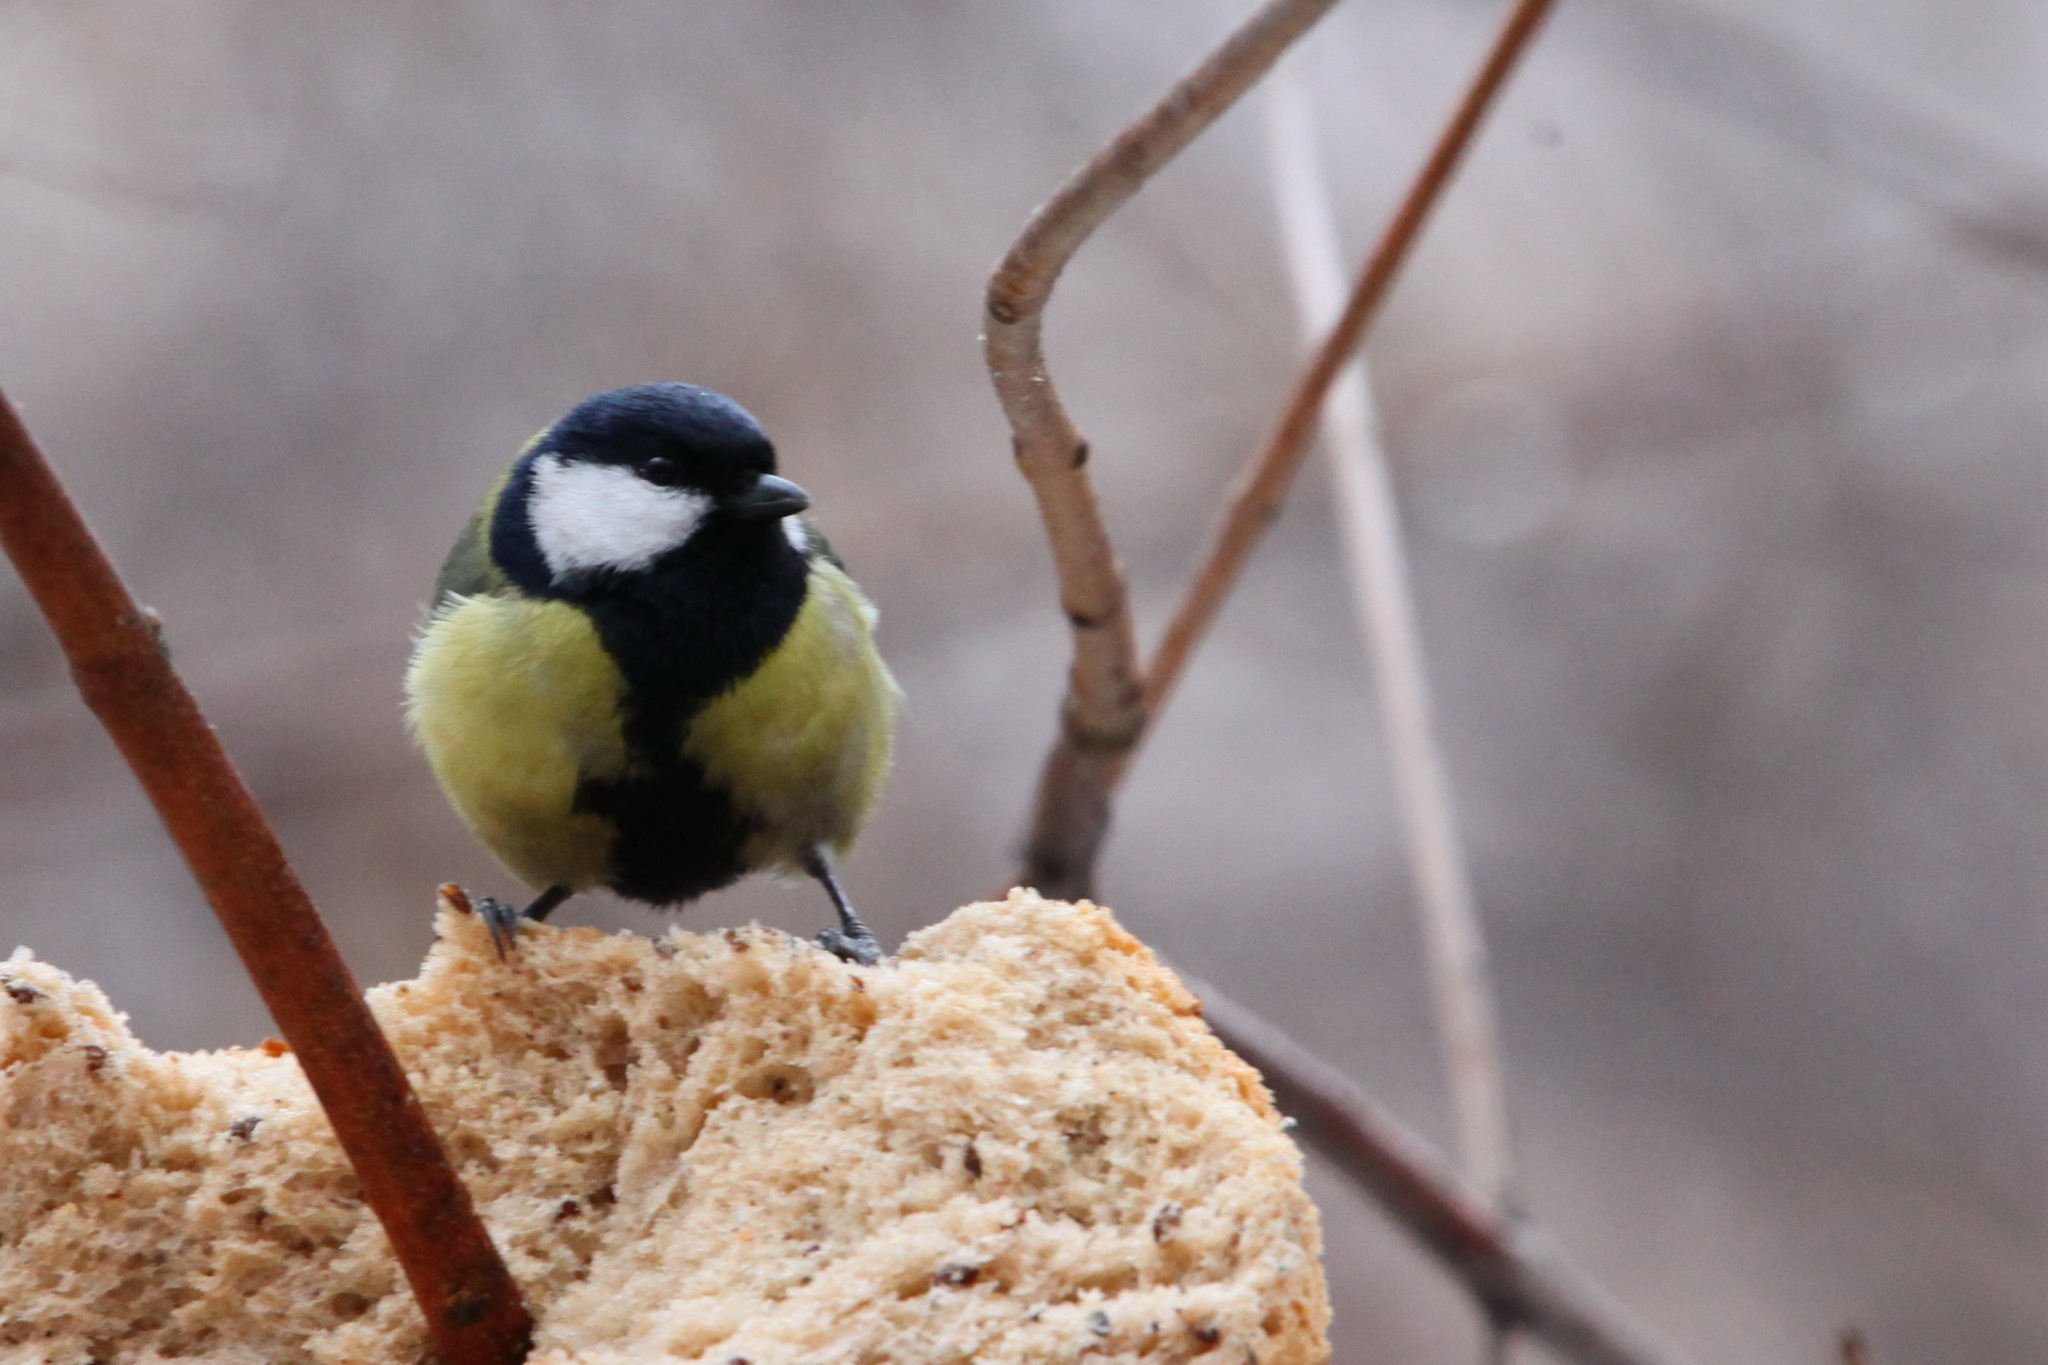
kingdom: Animalia
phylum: Chordata
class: Aves
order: Passeriformes
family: Paridae
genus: Parus
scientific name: Parus major
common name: Great tit
